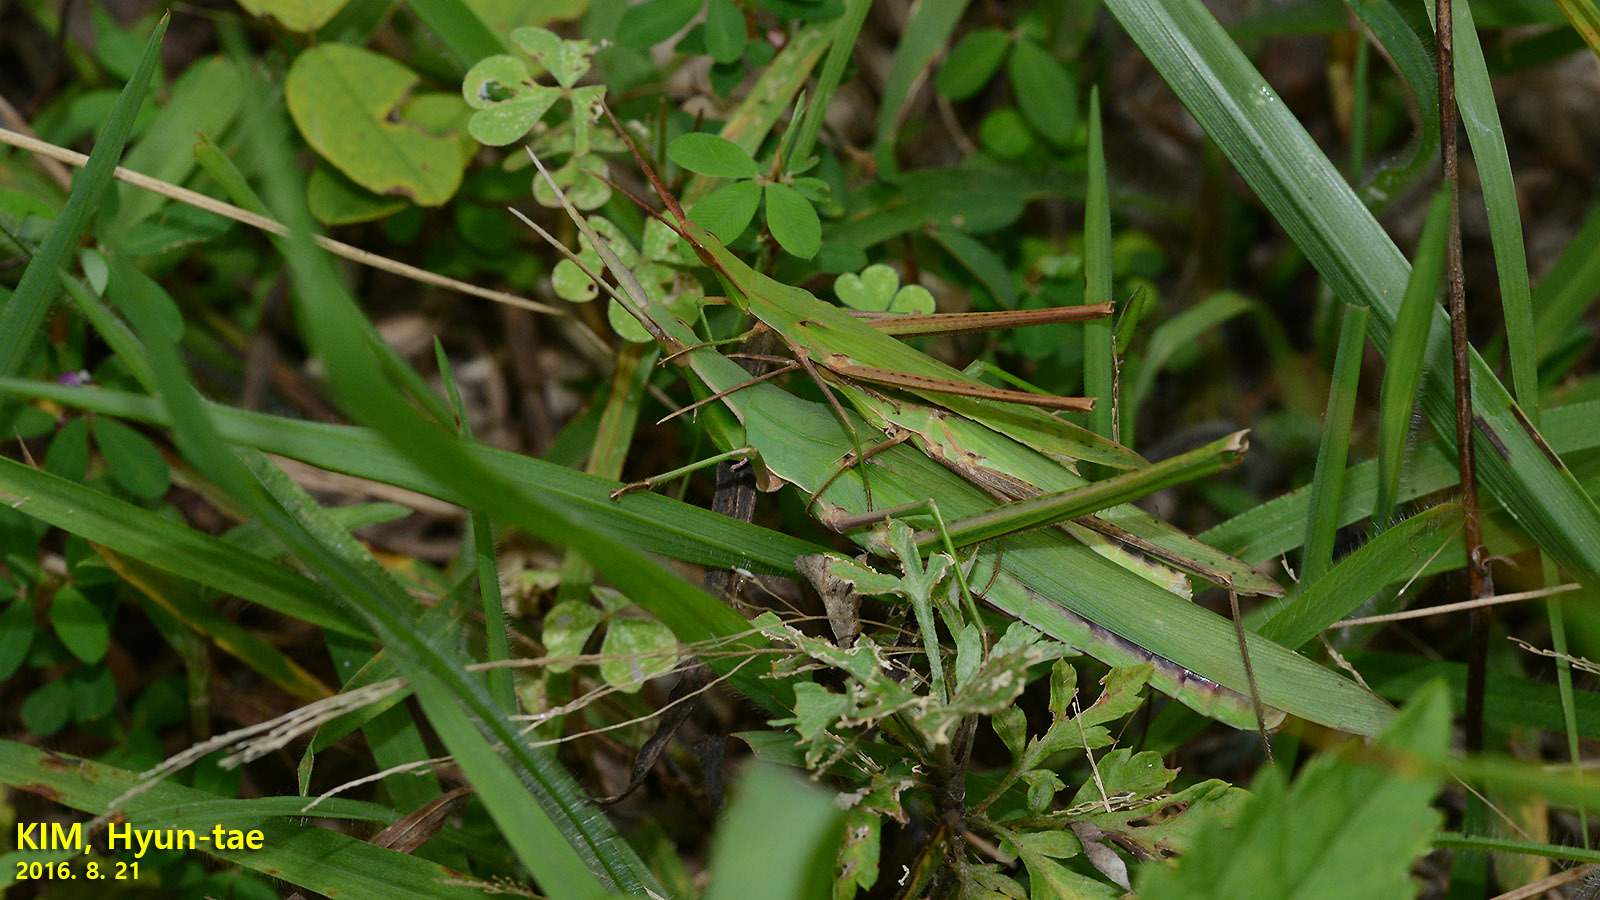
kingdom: Animalia
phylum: Arthropoda
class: Insecta
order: Orthoptera
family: Acrididae
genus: Acrida
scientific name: Acrida cinerea
